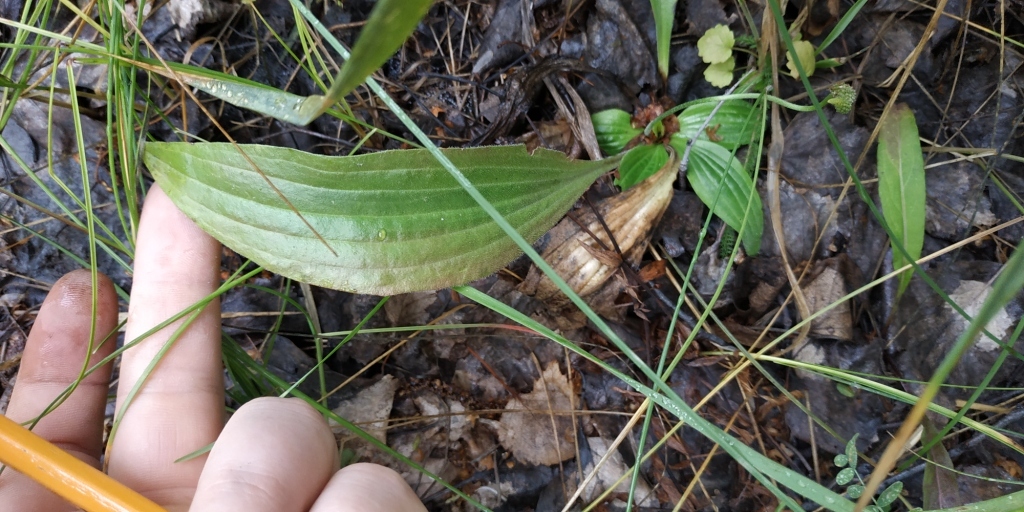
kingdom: Plantae
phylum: Tracheophyta
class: Magnoliopsida
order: Lamiales
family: Plantaginaceae
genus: Plantago
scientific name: Plantago media
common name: Hoary plantain
